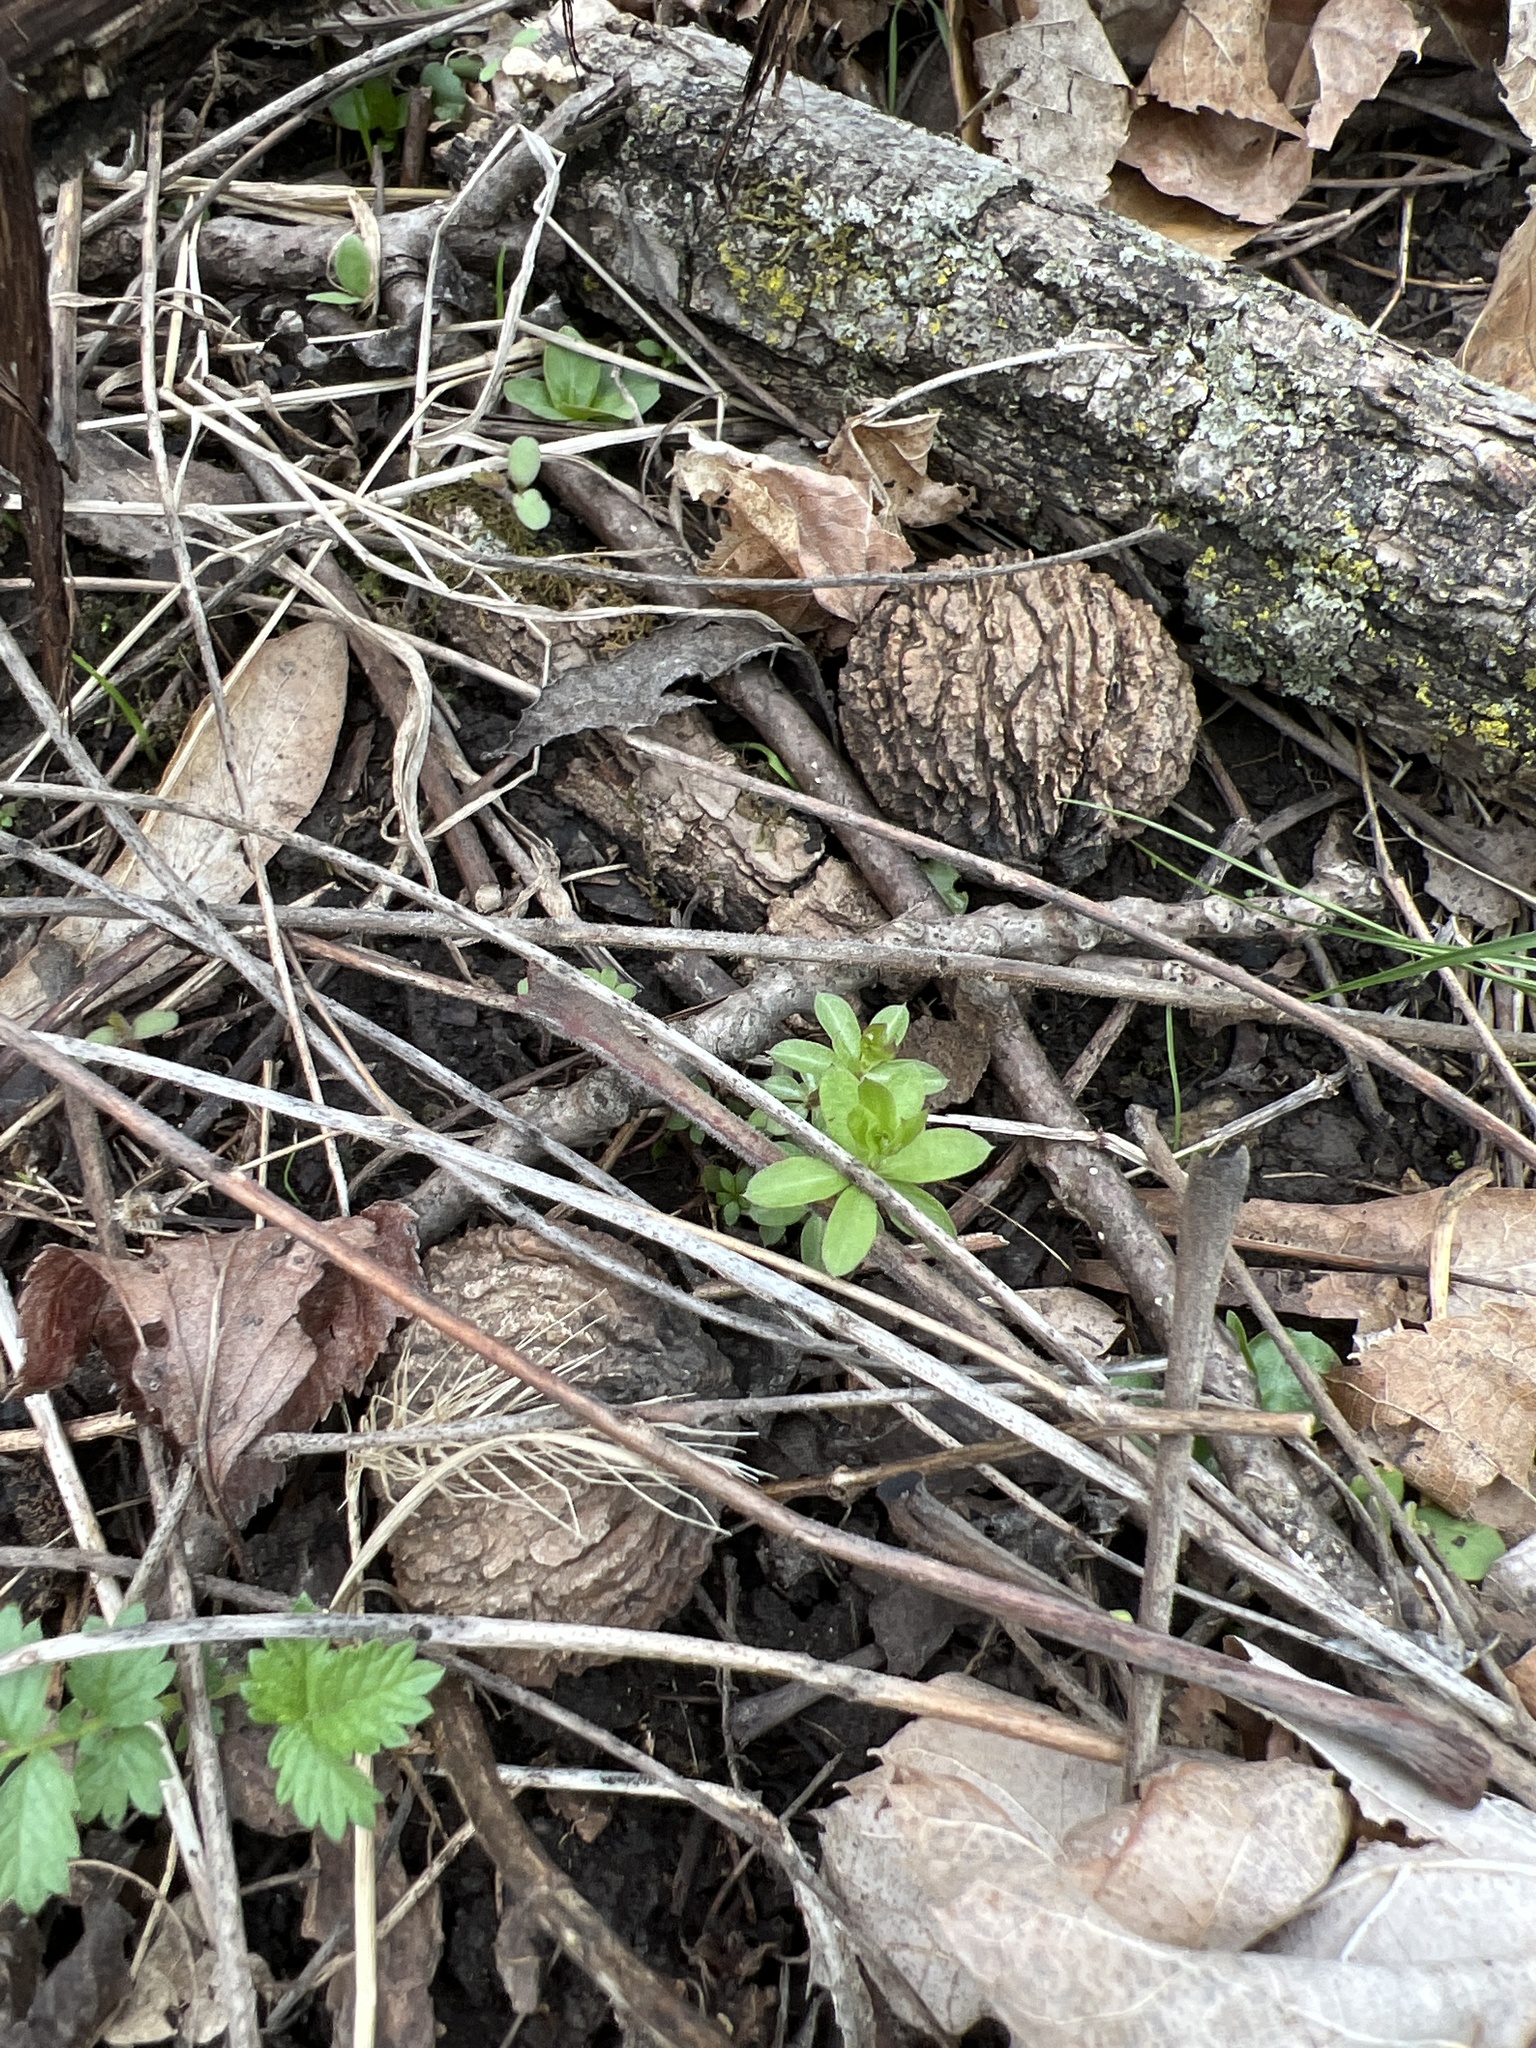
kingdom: Plantae
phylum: Tracheophyta
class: Magnoliopsida
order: Fagales
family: Juglandaceae
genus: Juglans
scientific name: Juglans nigra
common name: Black walnut
